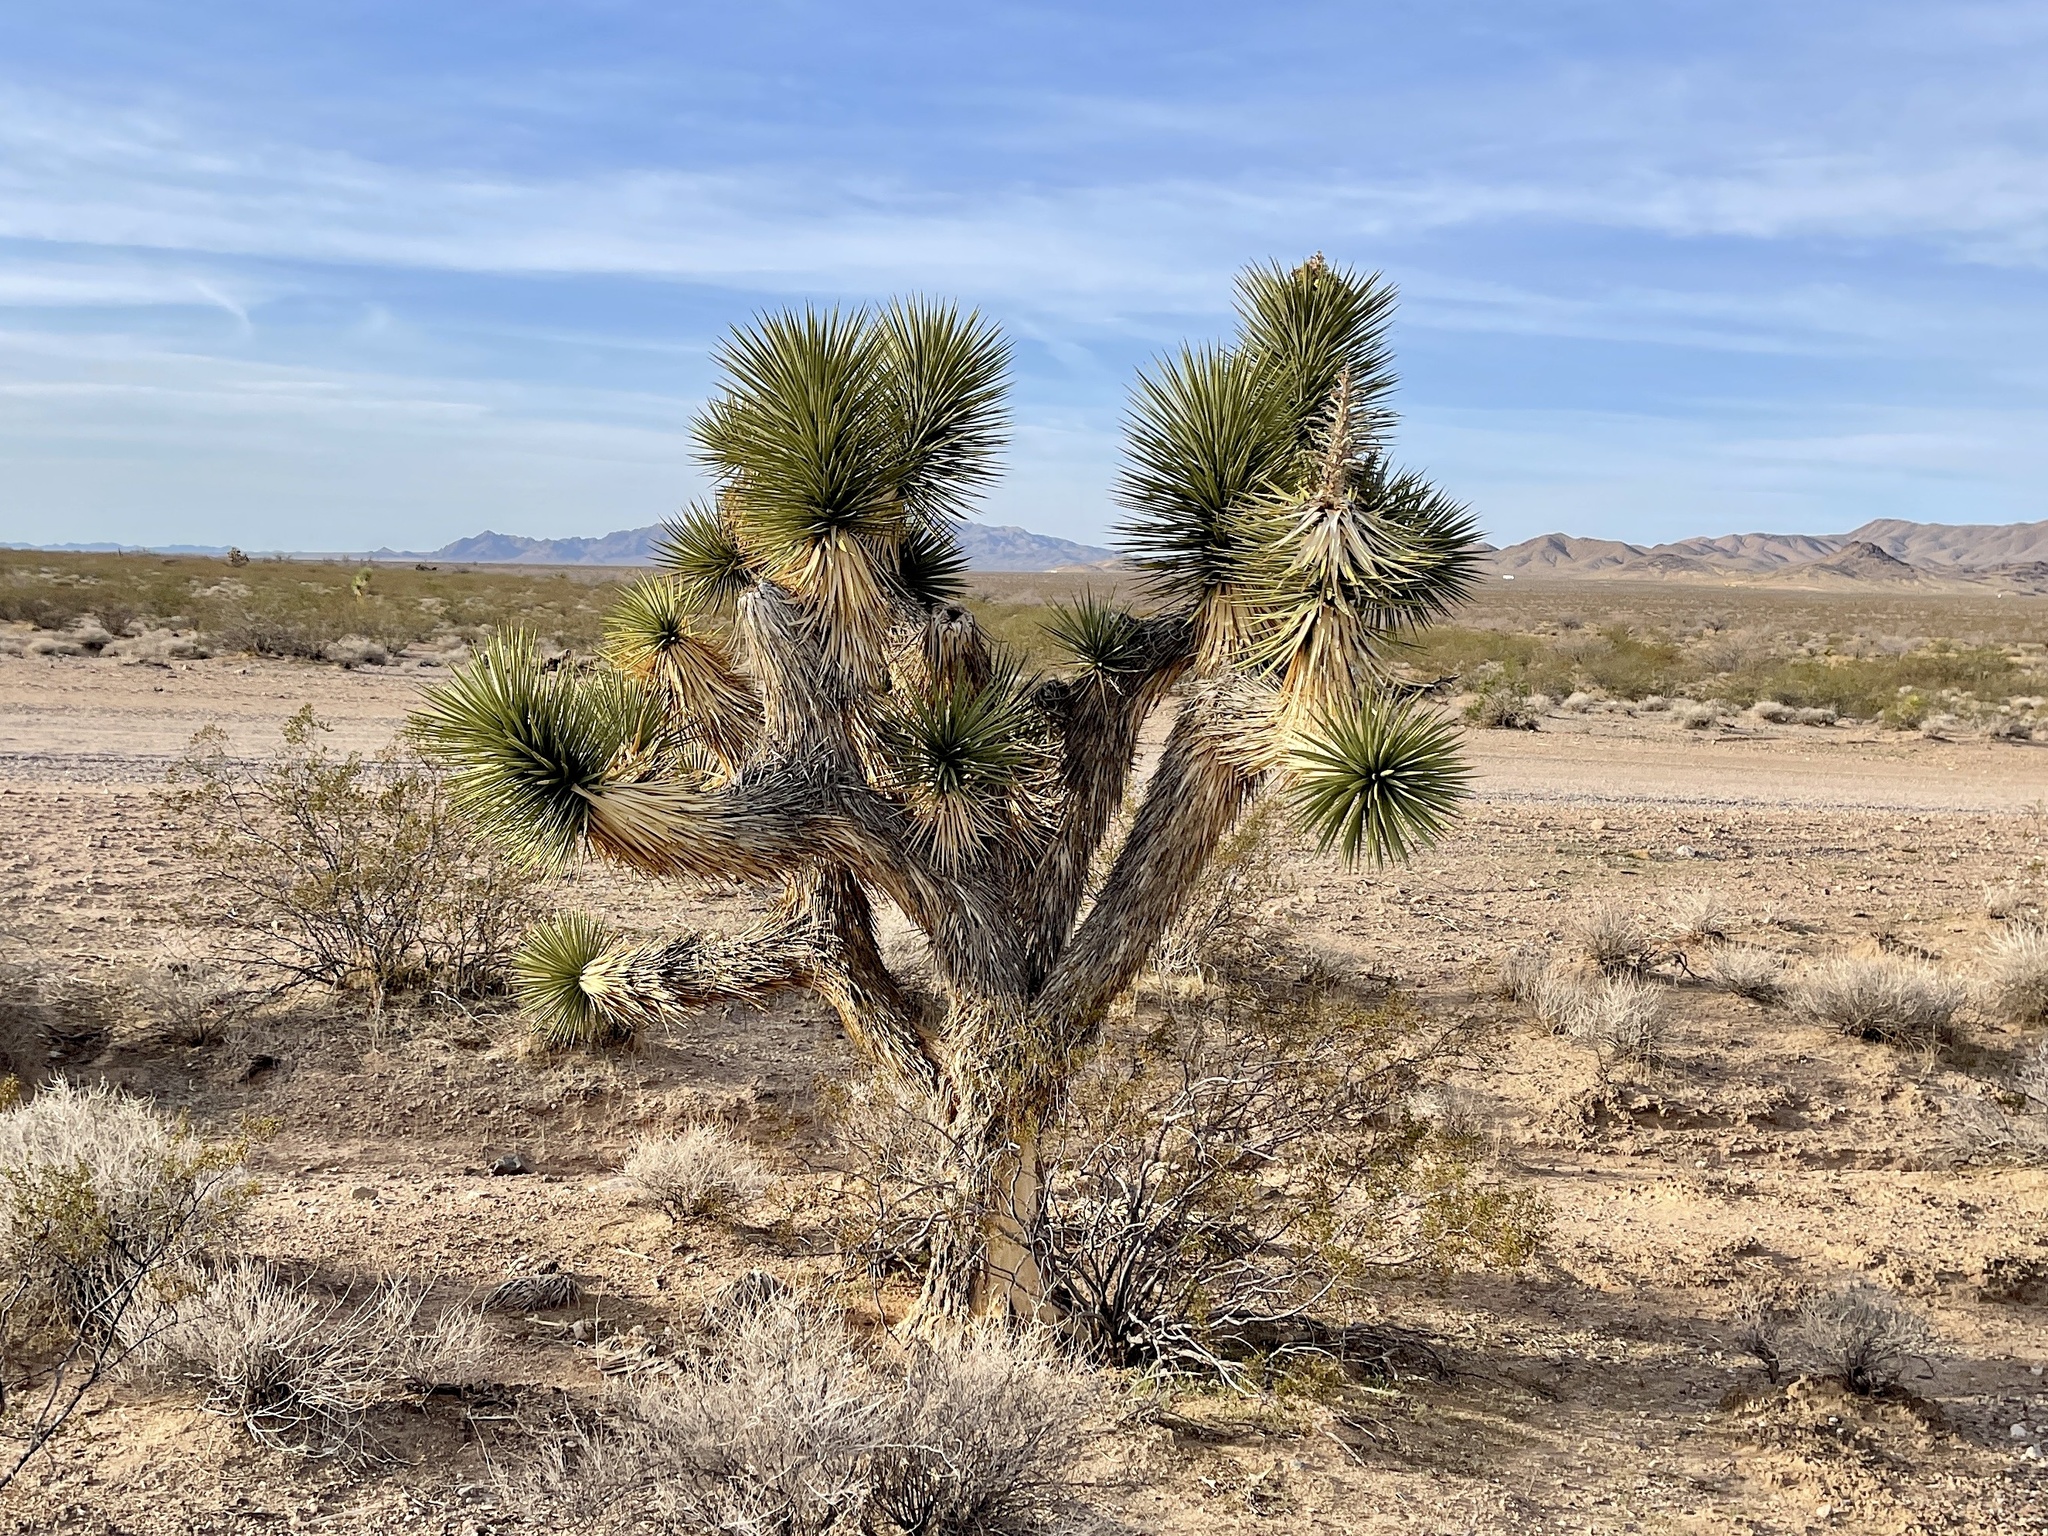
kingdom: Plantae
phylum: Tracheophyta
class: Liliopsida
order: Asparagales
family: Asparagaceae
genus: Yucca
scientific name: Yucca brevifolia
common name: Joshua tree
